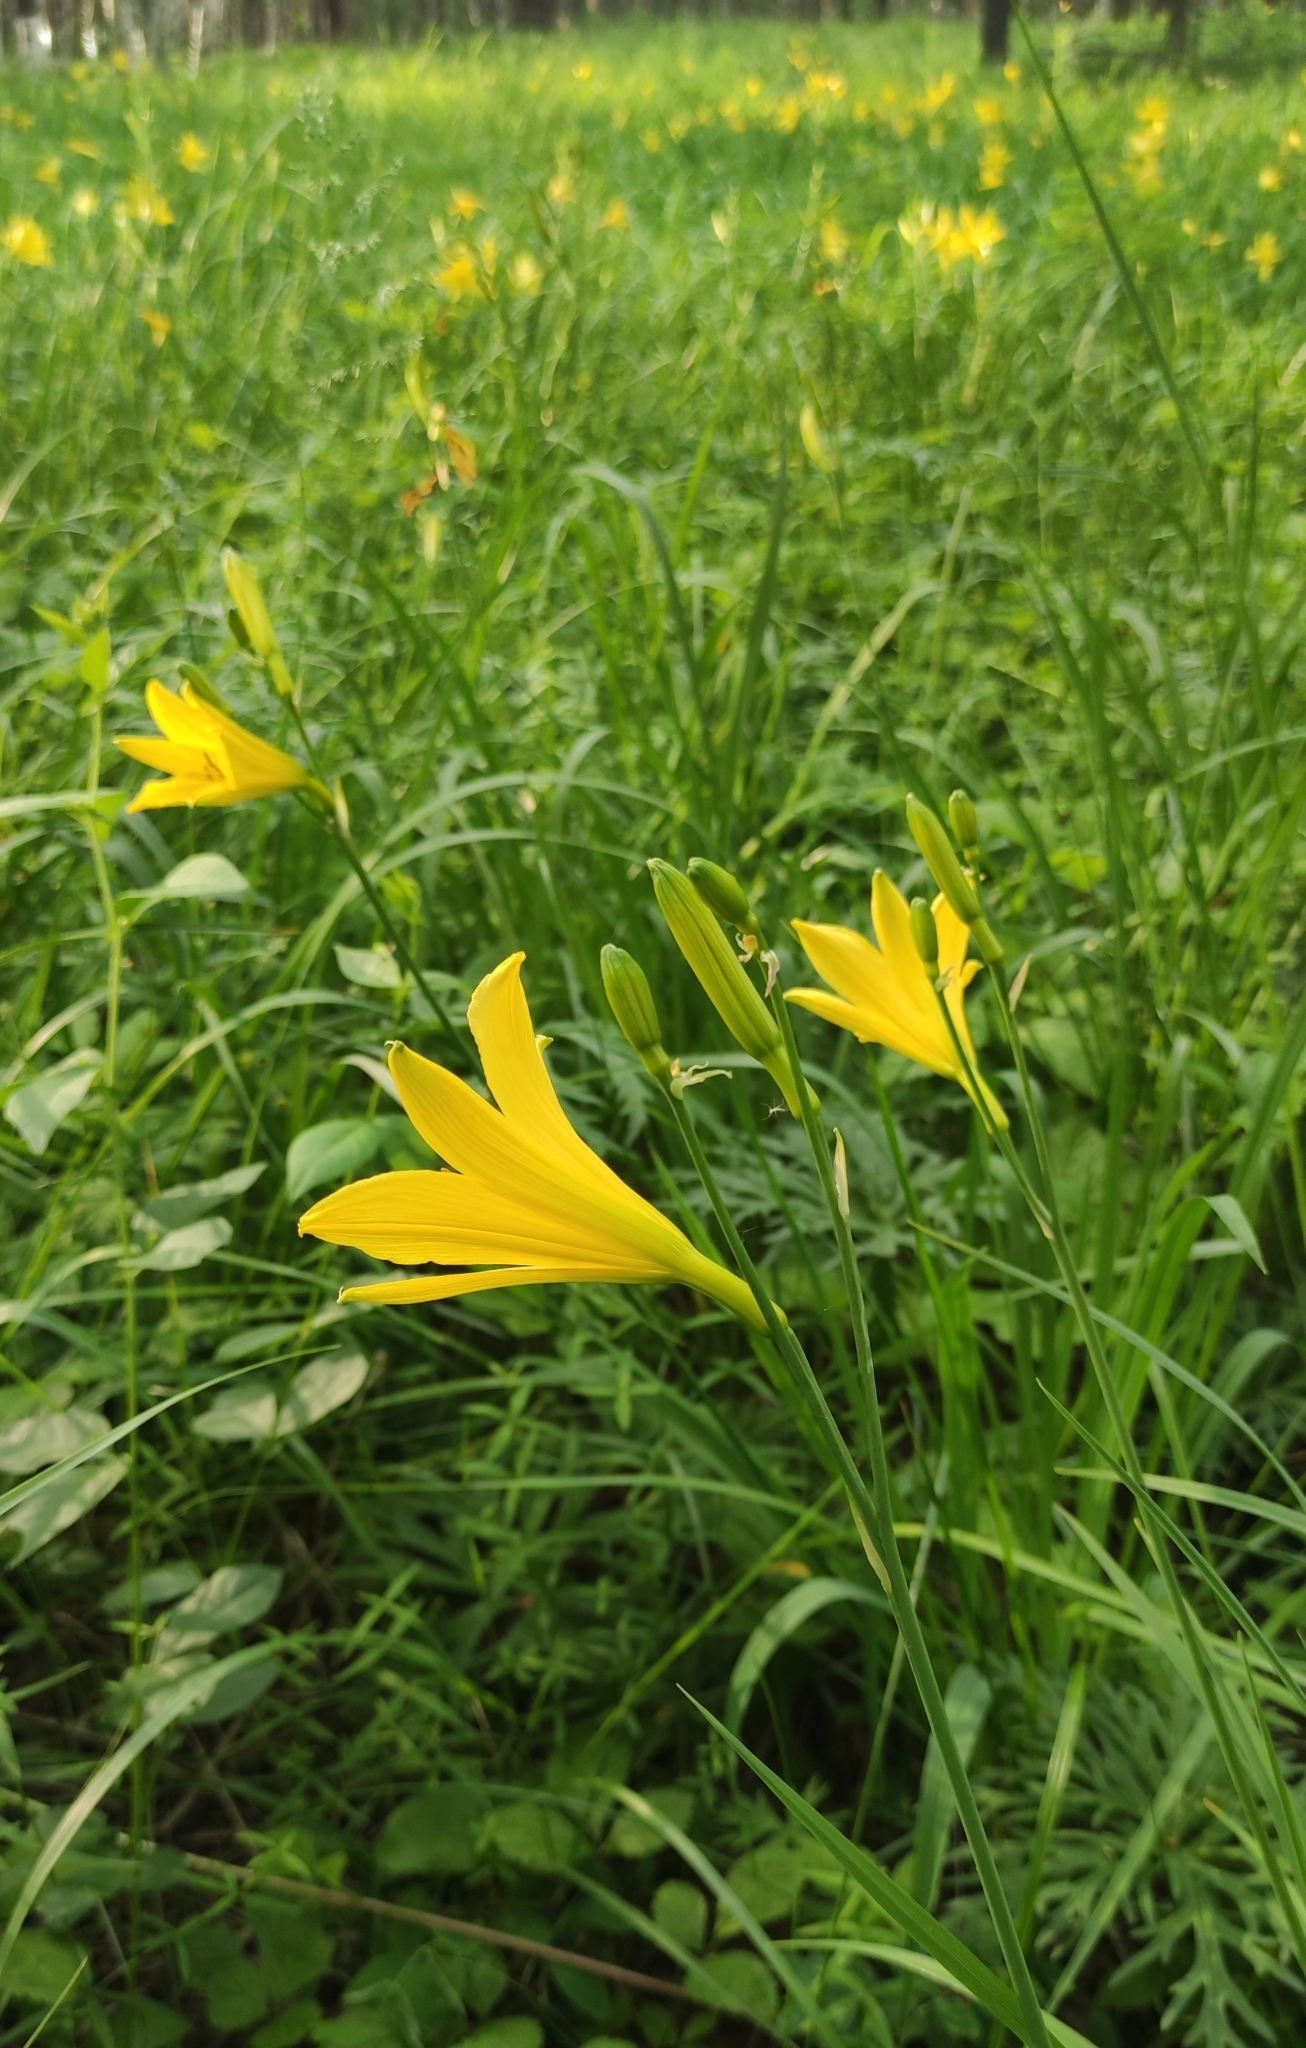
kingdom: Plantae
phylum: Tracheophyta
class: Liliopsida
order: Asparagales
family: Asphodelaceae
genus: Hemerocallis
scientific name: Hemerocallis minor
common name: Small daylily
